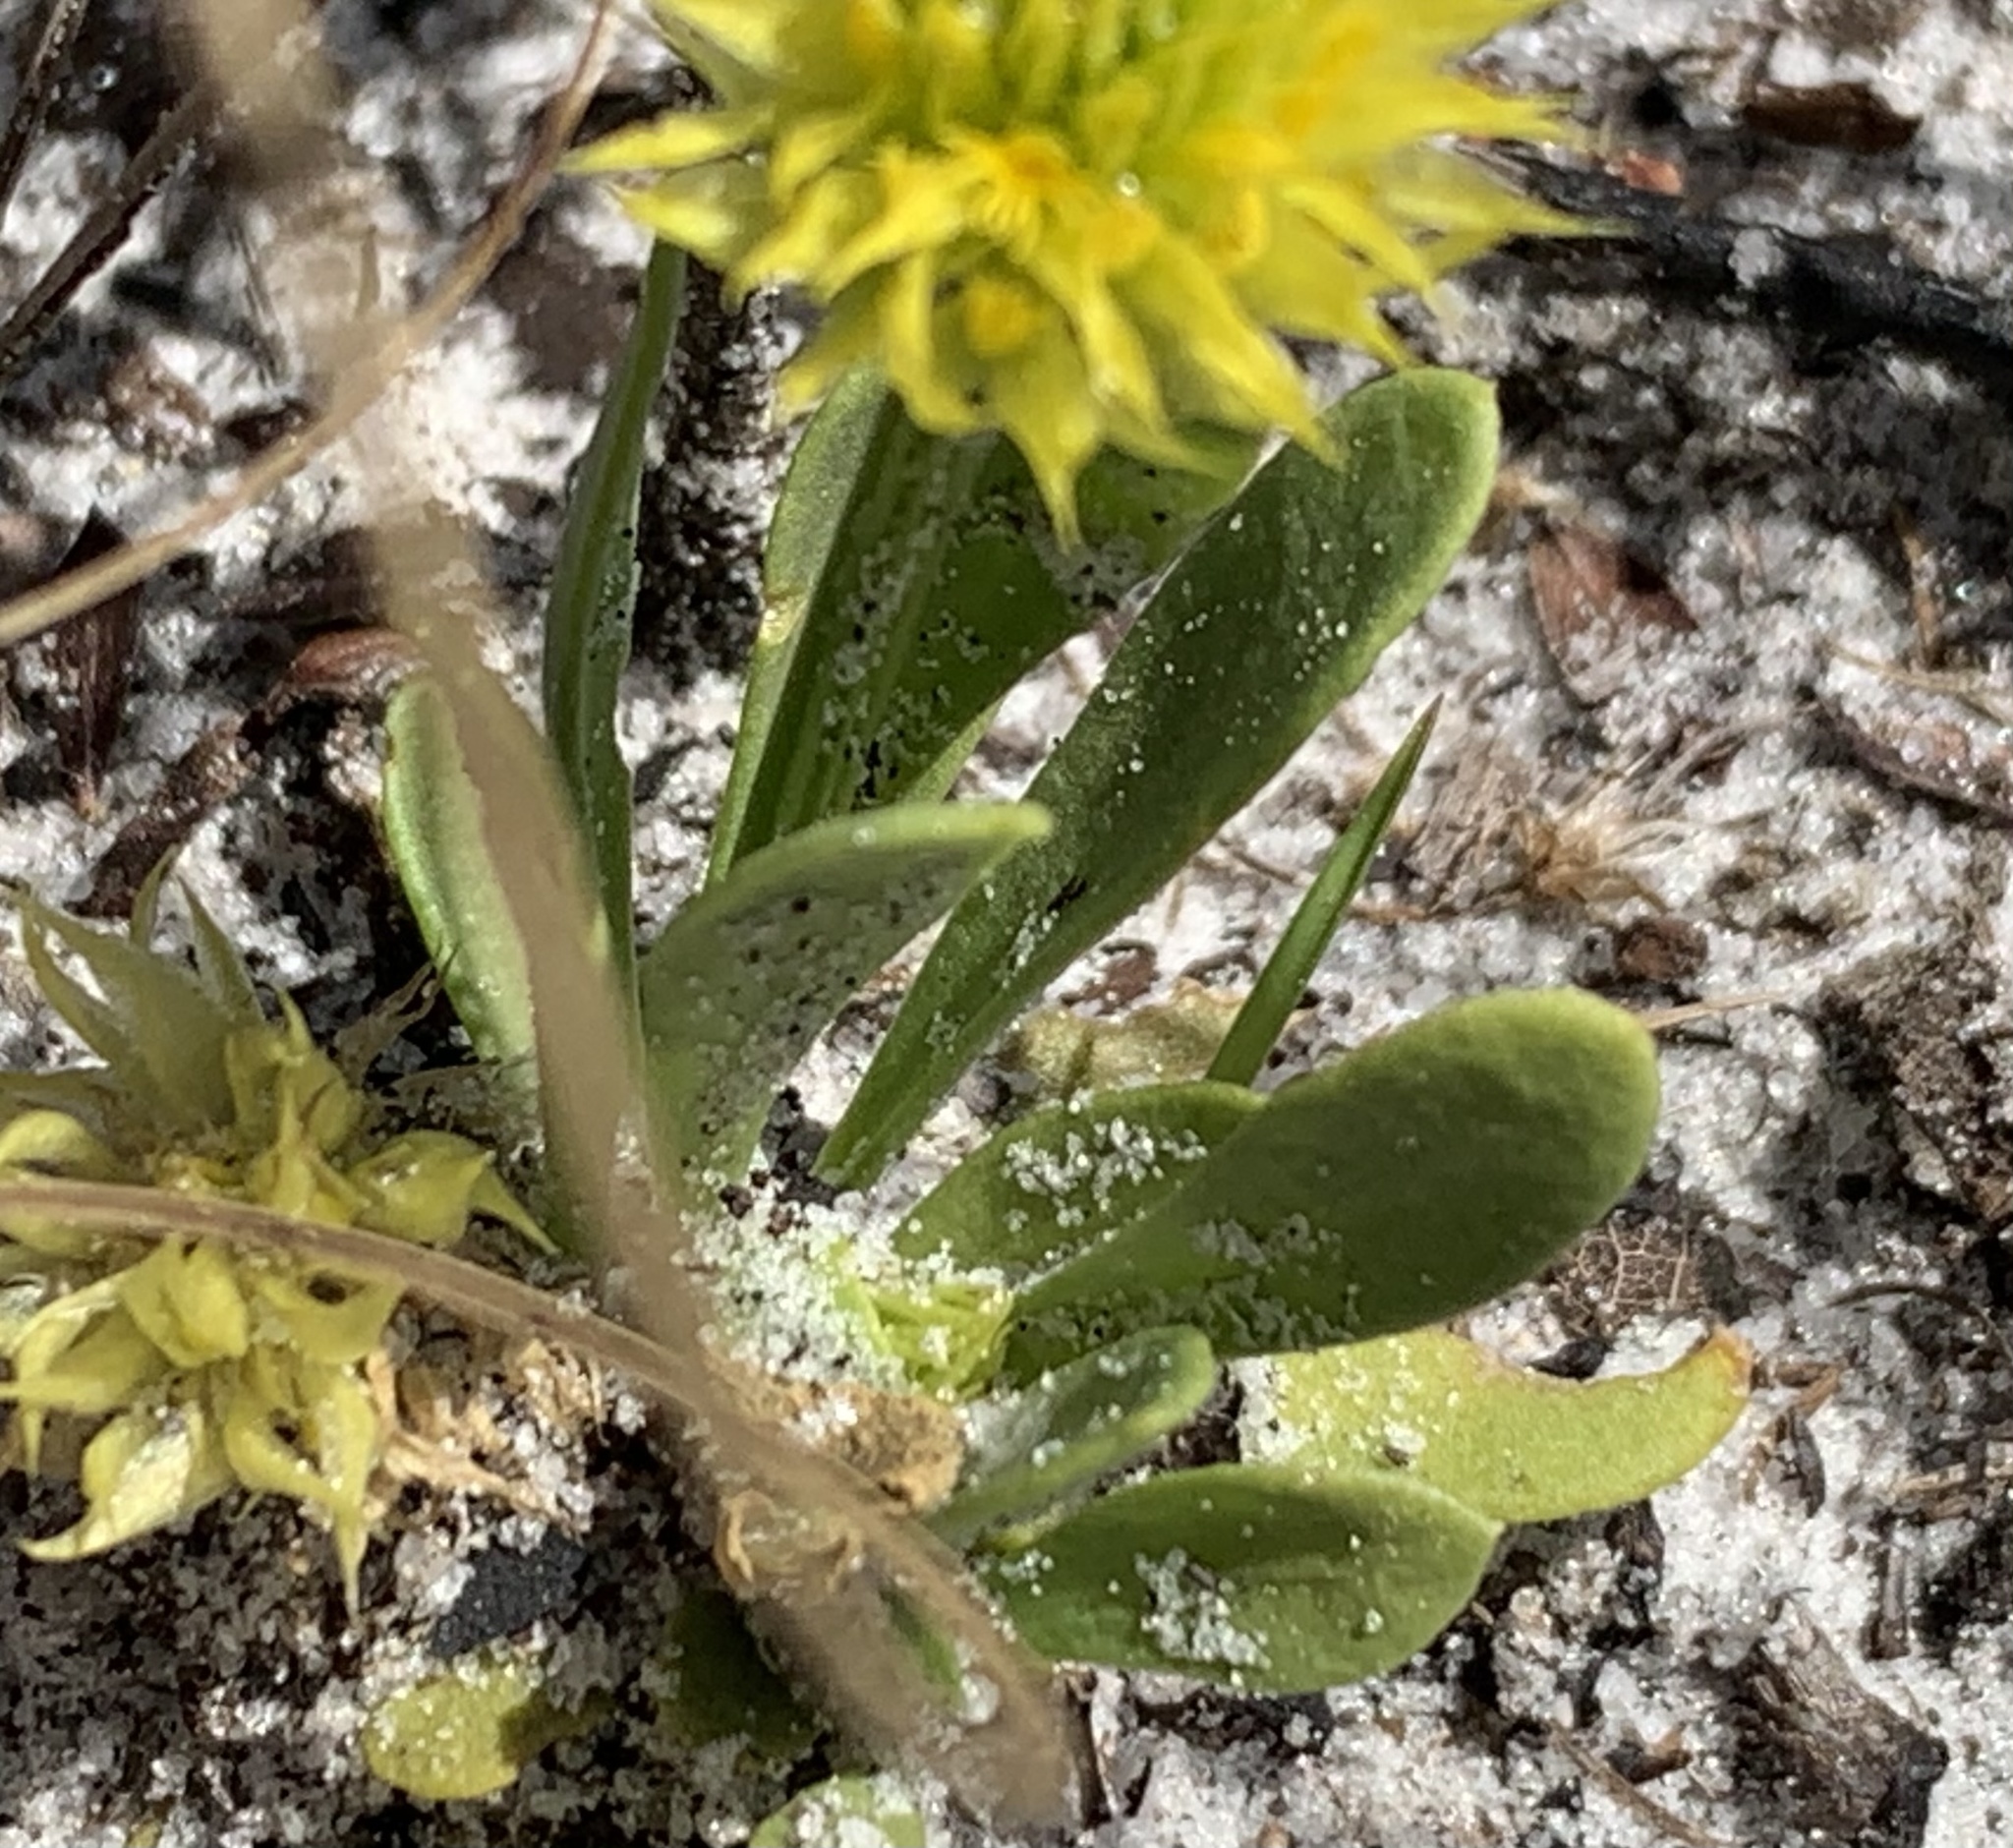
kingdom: Plantae
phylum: Tracheophyta
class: Magnoliopsida
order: Fabales
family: Polygalaceae
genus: Polygala
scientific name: Polygala nana
